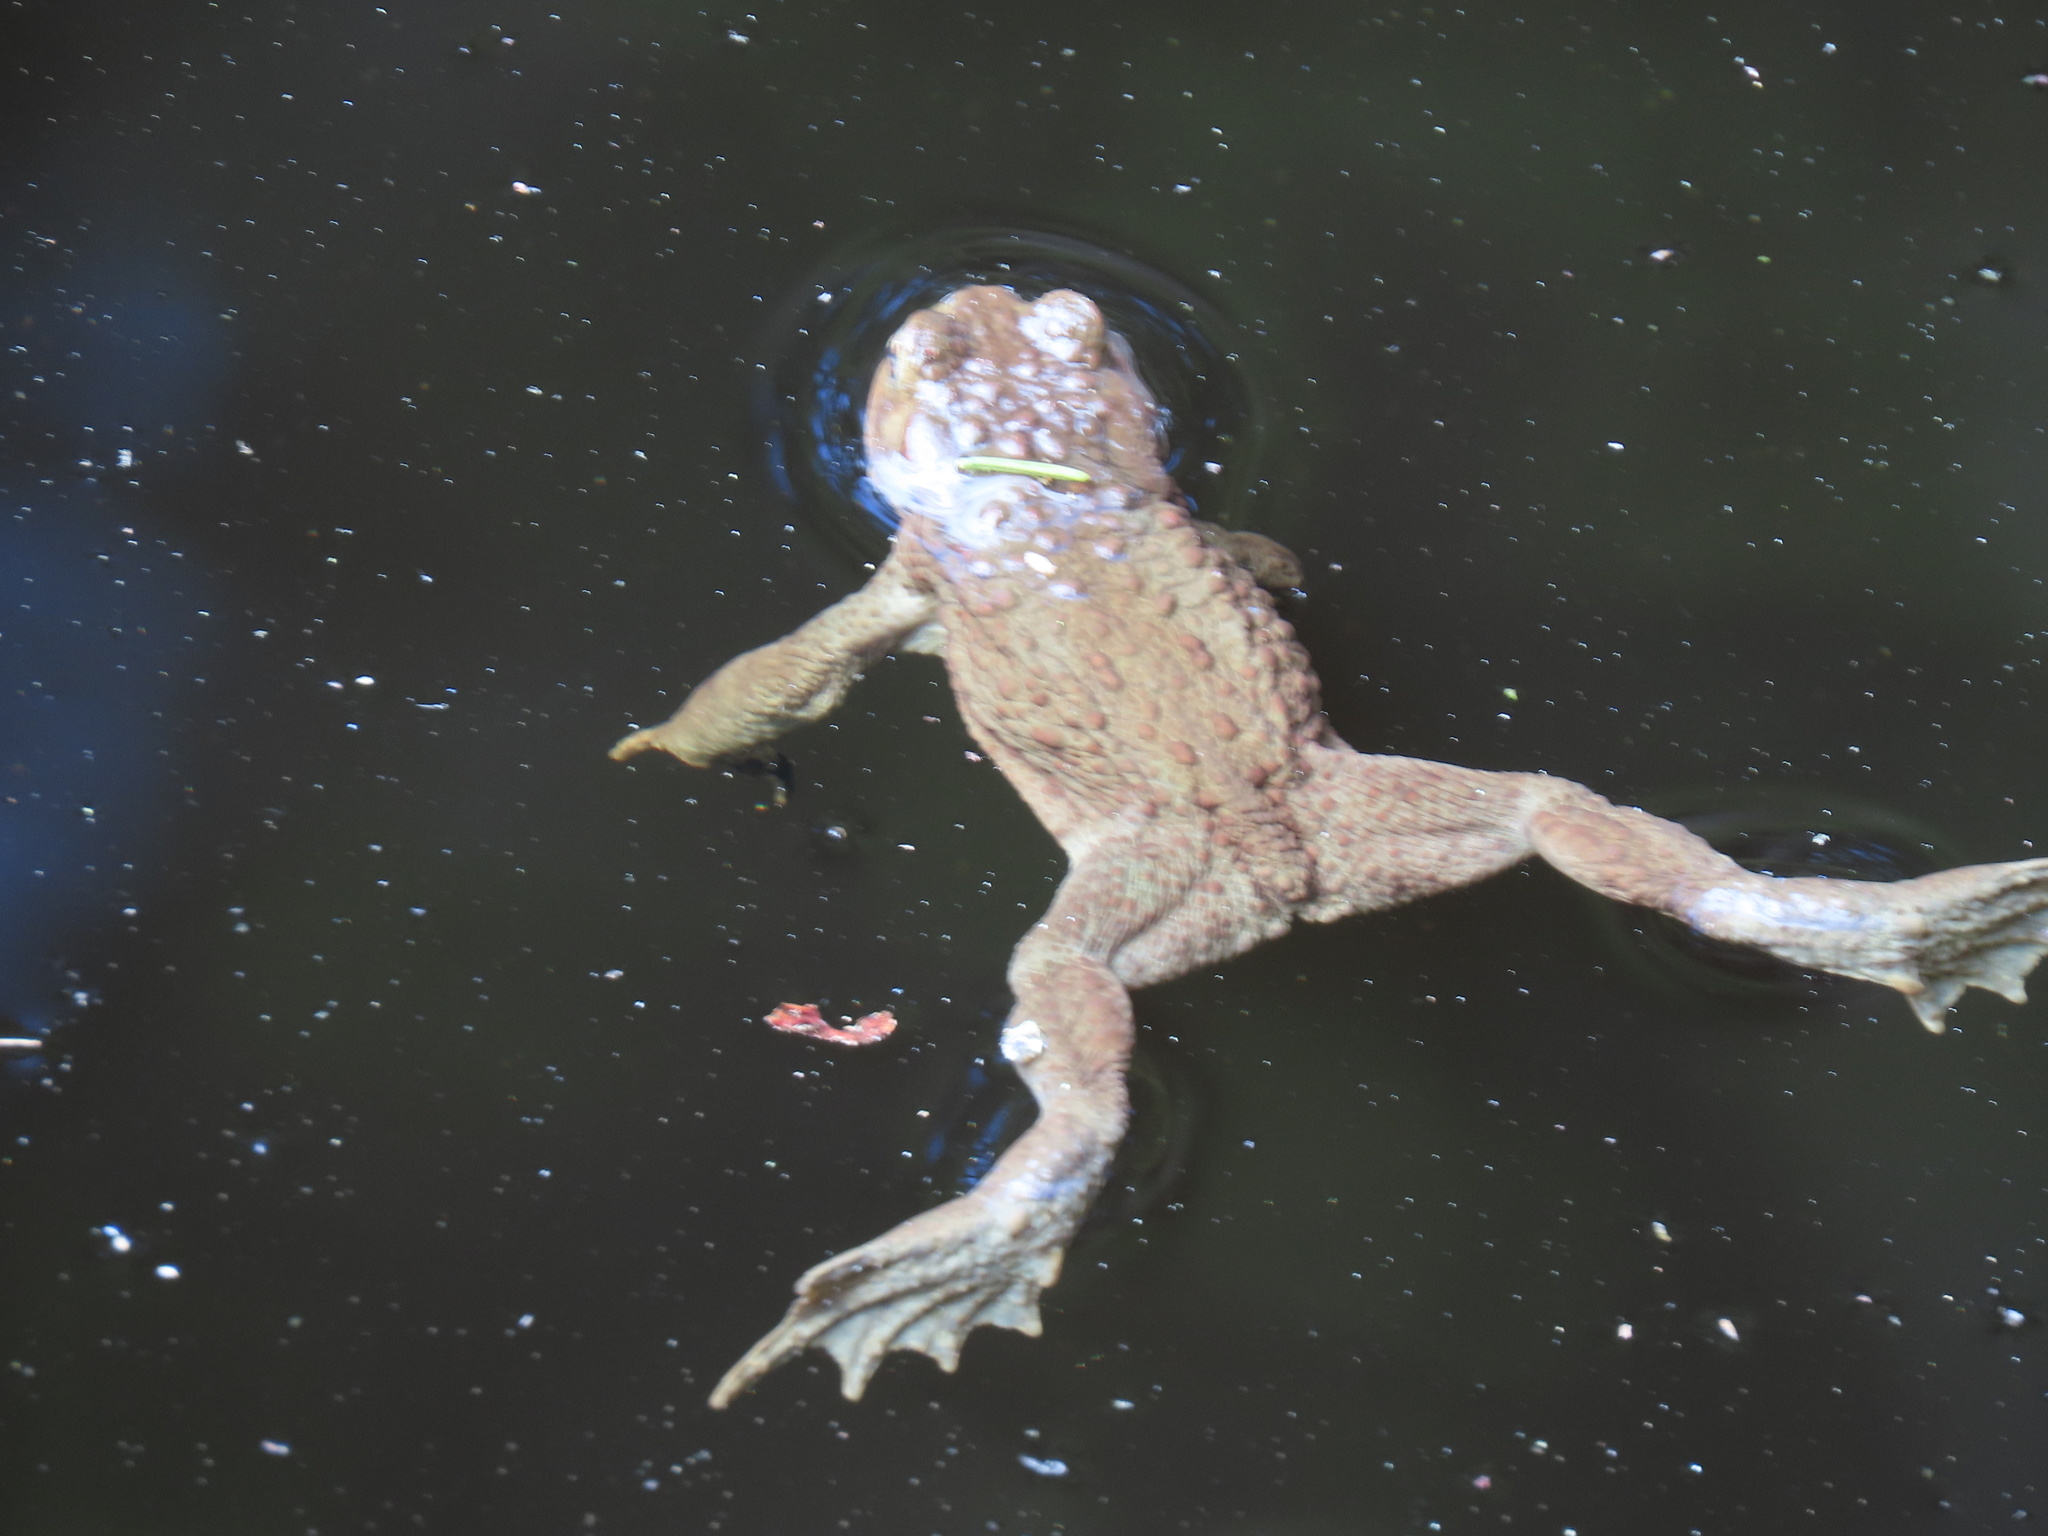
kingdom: Animalia
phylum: Chordata
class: Amphibia
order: Anura
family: Bufonidae
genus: Bufo
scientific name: Bufo bufo
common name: Common toad
